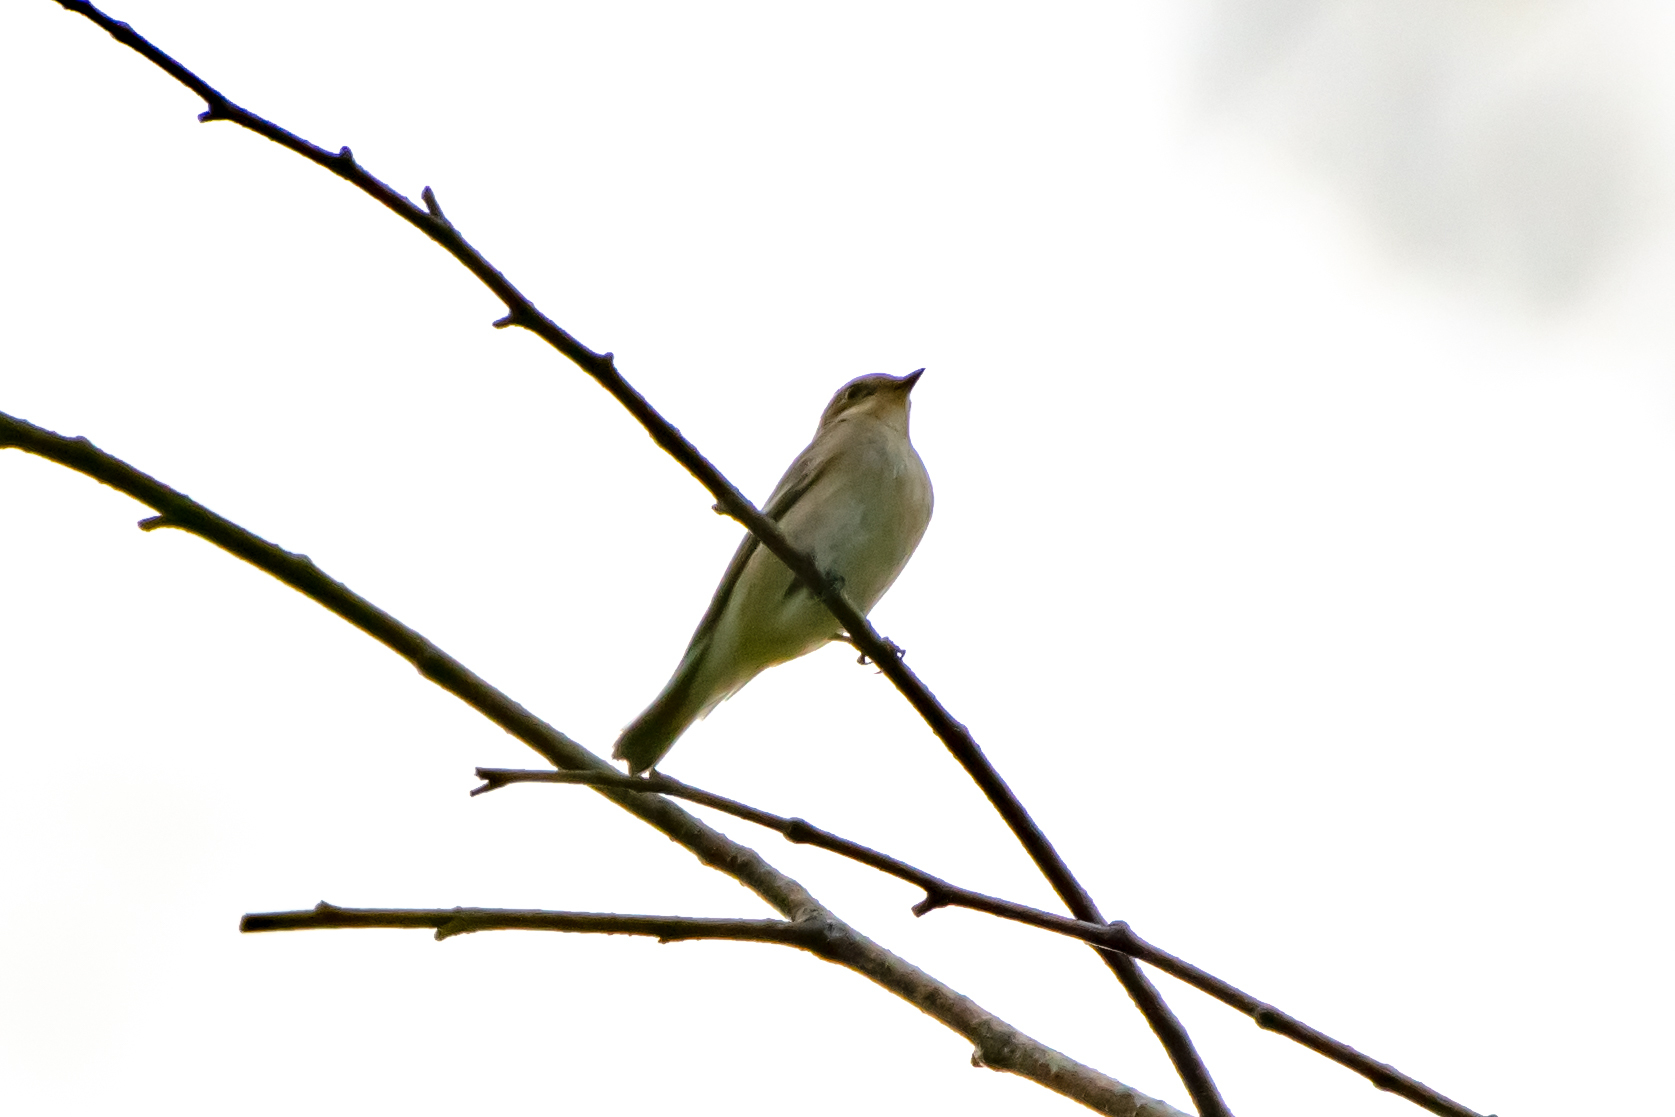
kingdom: Animalia
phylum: Chordata
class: Aves
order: Passeriformes
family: Muscicapidae
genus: Ficedula
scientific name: Ficedula hypoleuca
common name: European pied flycatcher
